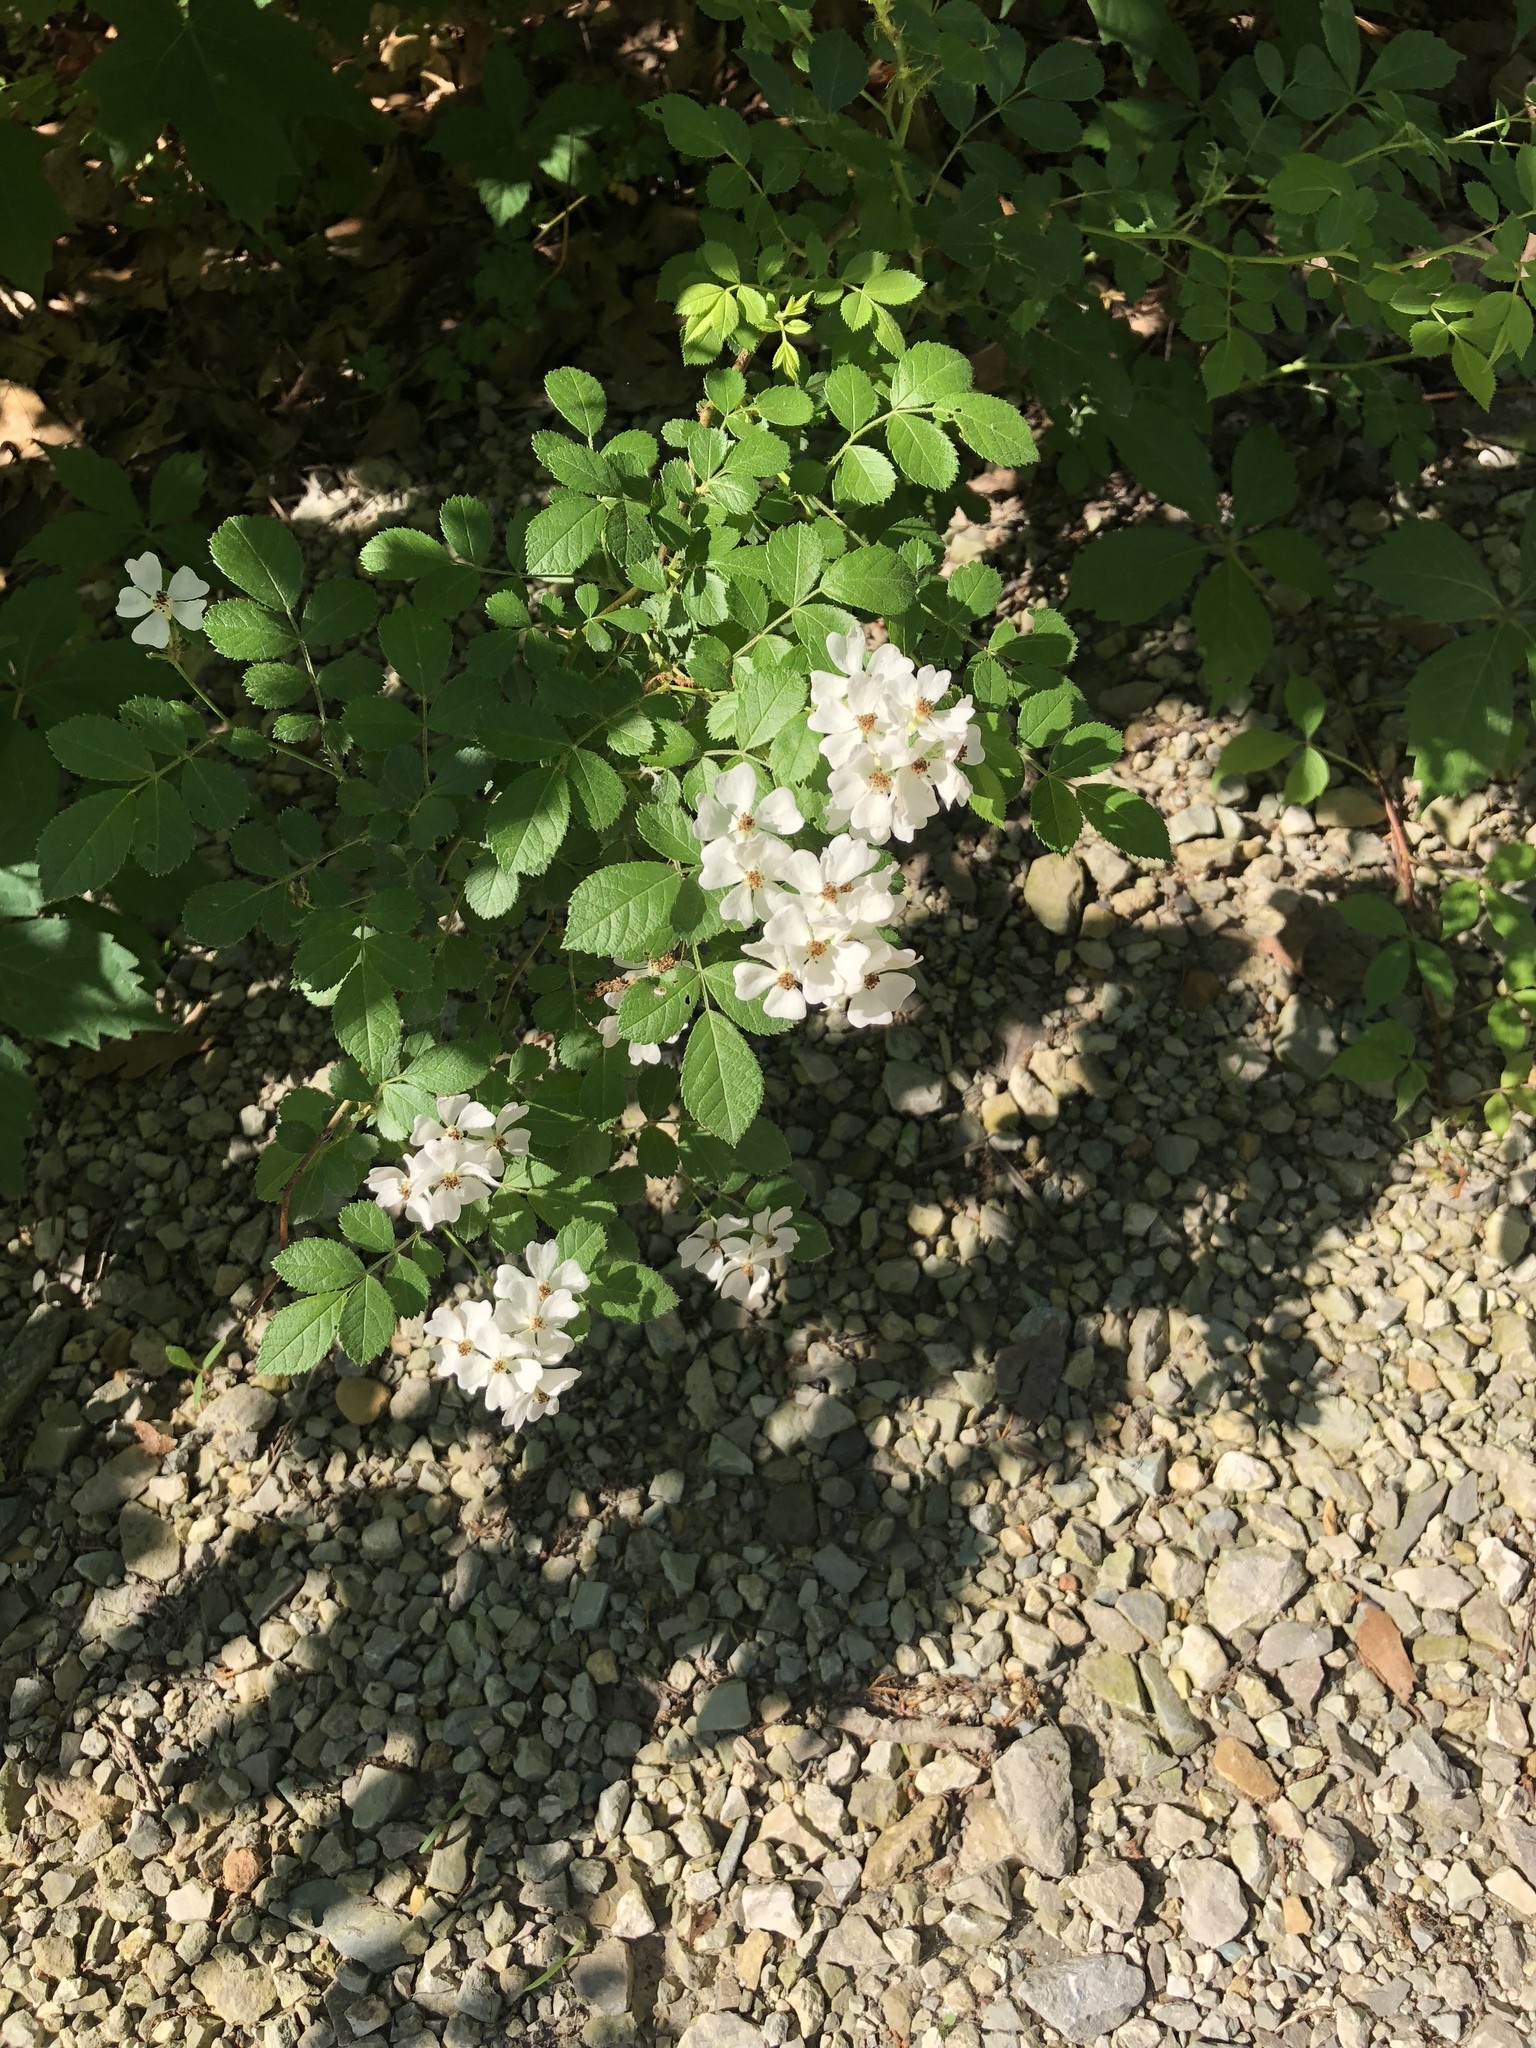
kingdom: Plantae
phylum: Tracheophyta
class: Magnoliopsida
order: Rosales
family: Rosaceae
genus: Rosa
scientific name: Rosa multiflora
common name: Multiflora rose
